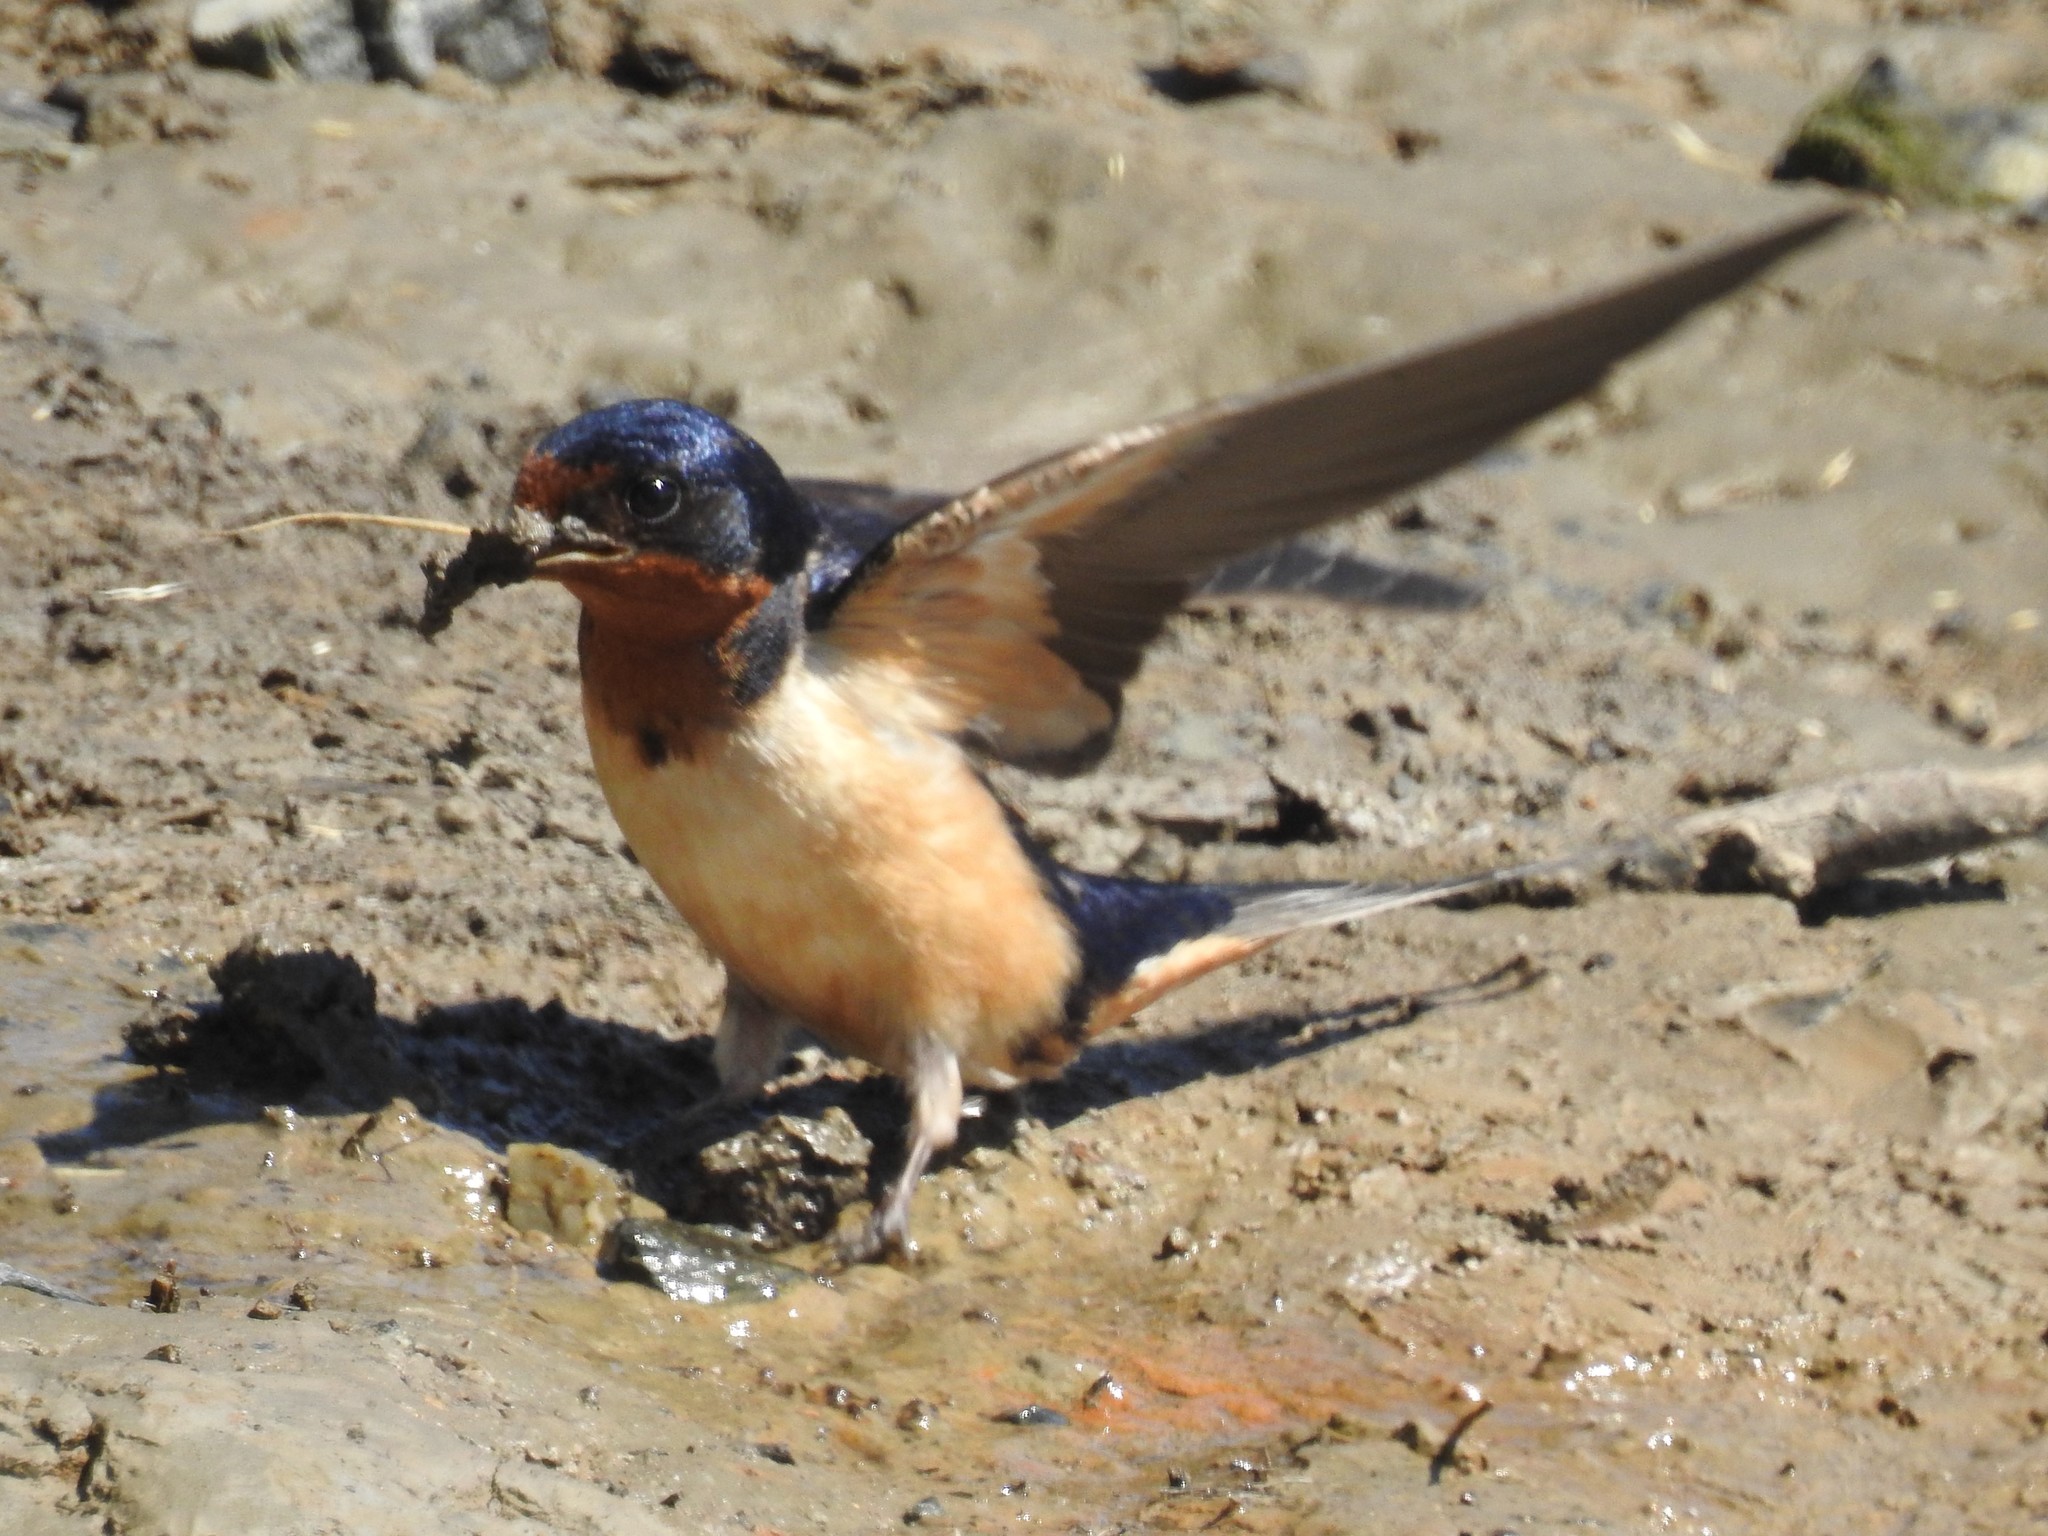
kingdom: Animalia
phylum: Chordata
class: Aves
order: Passeriformes
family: Hirundinidae
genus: Hirundo
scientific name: Hirundo rustica
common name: Barn swallow
